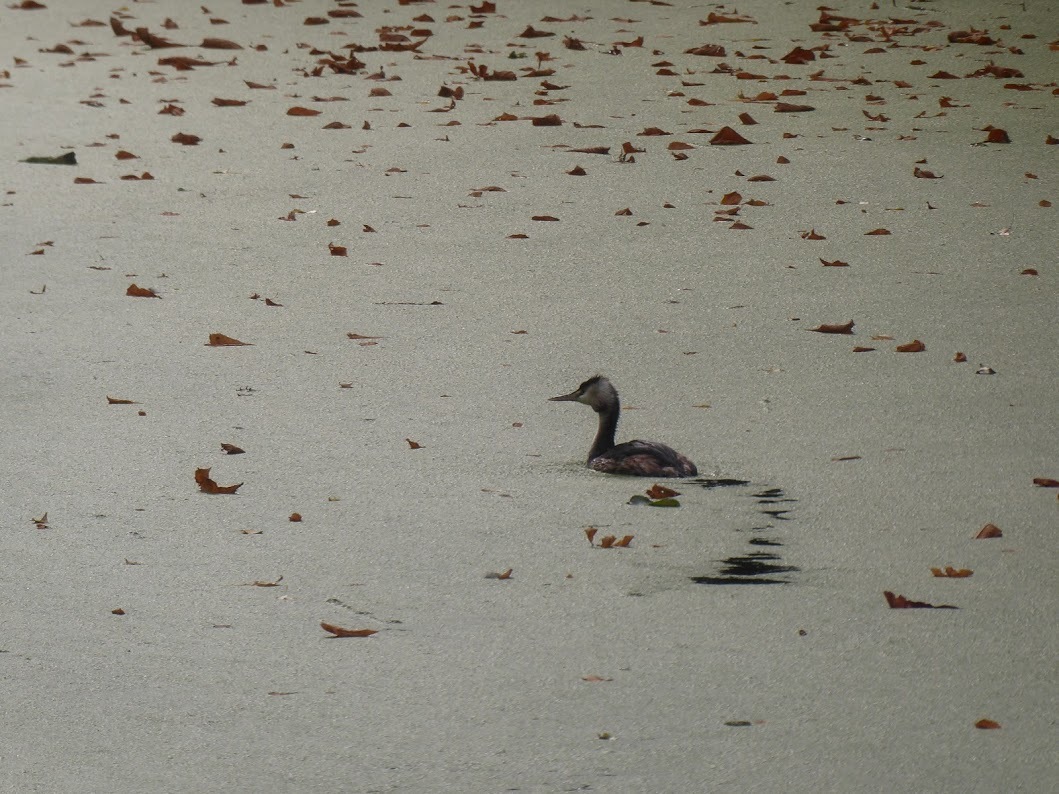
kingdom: Animalia
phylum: Chordata
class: Aves
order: Podicipediformes
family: Podicipedidae
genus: Podiceps
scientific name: Podiceps cristatus
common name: Great crested grebe
